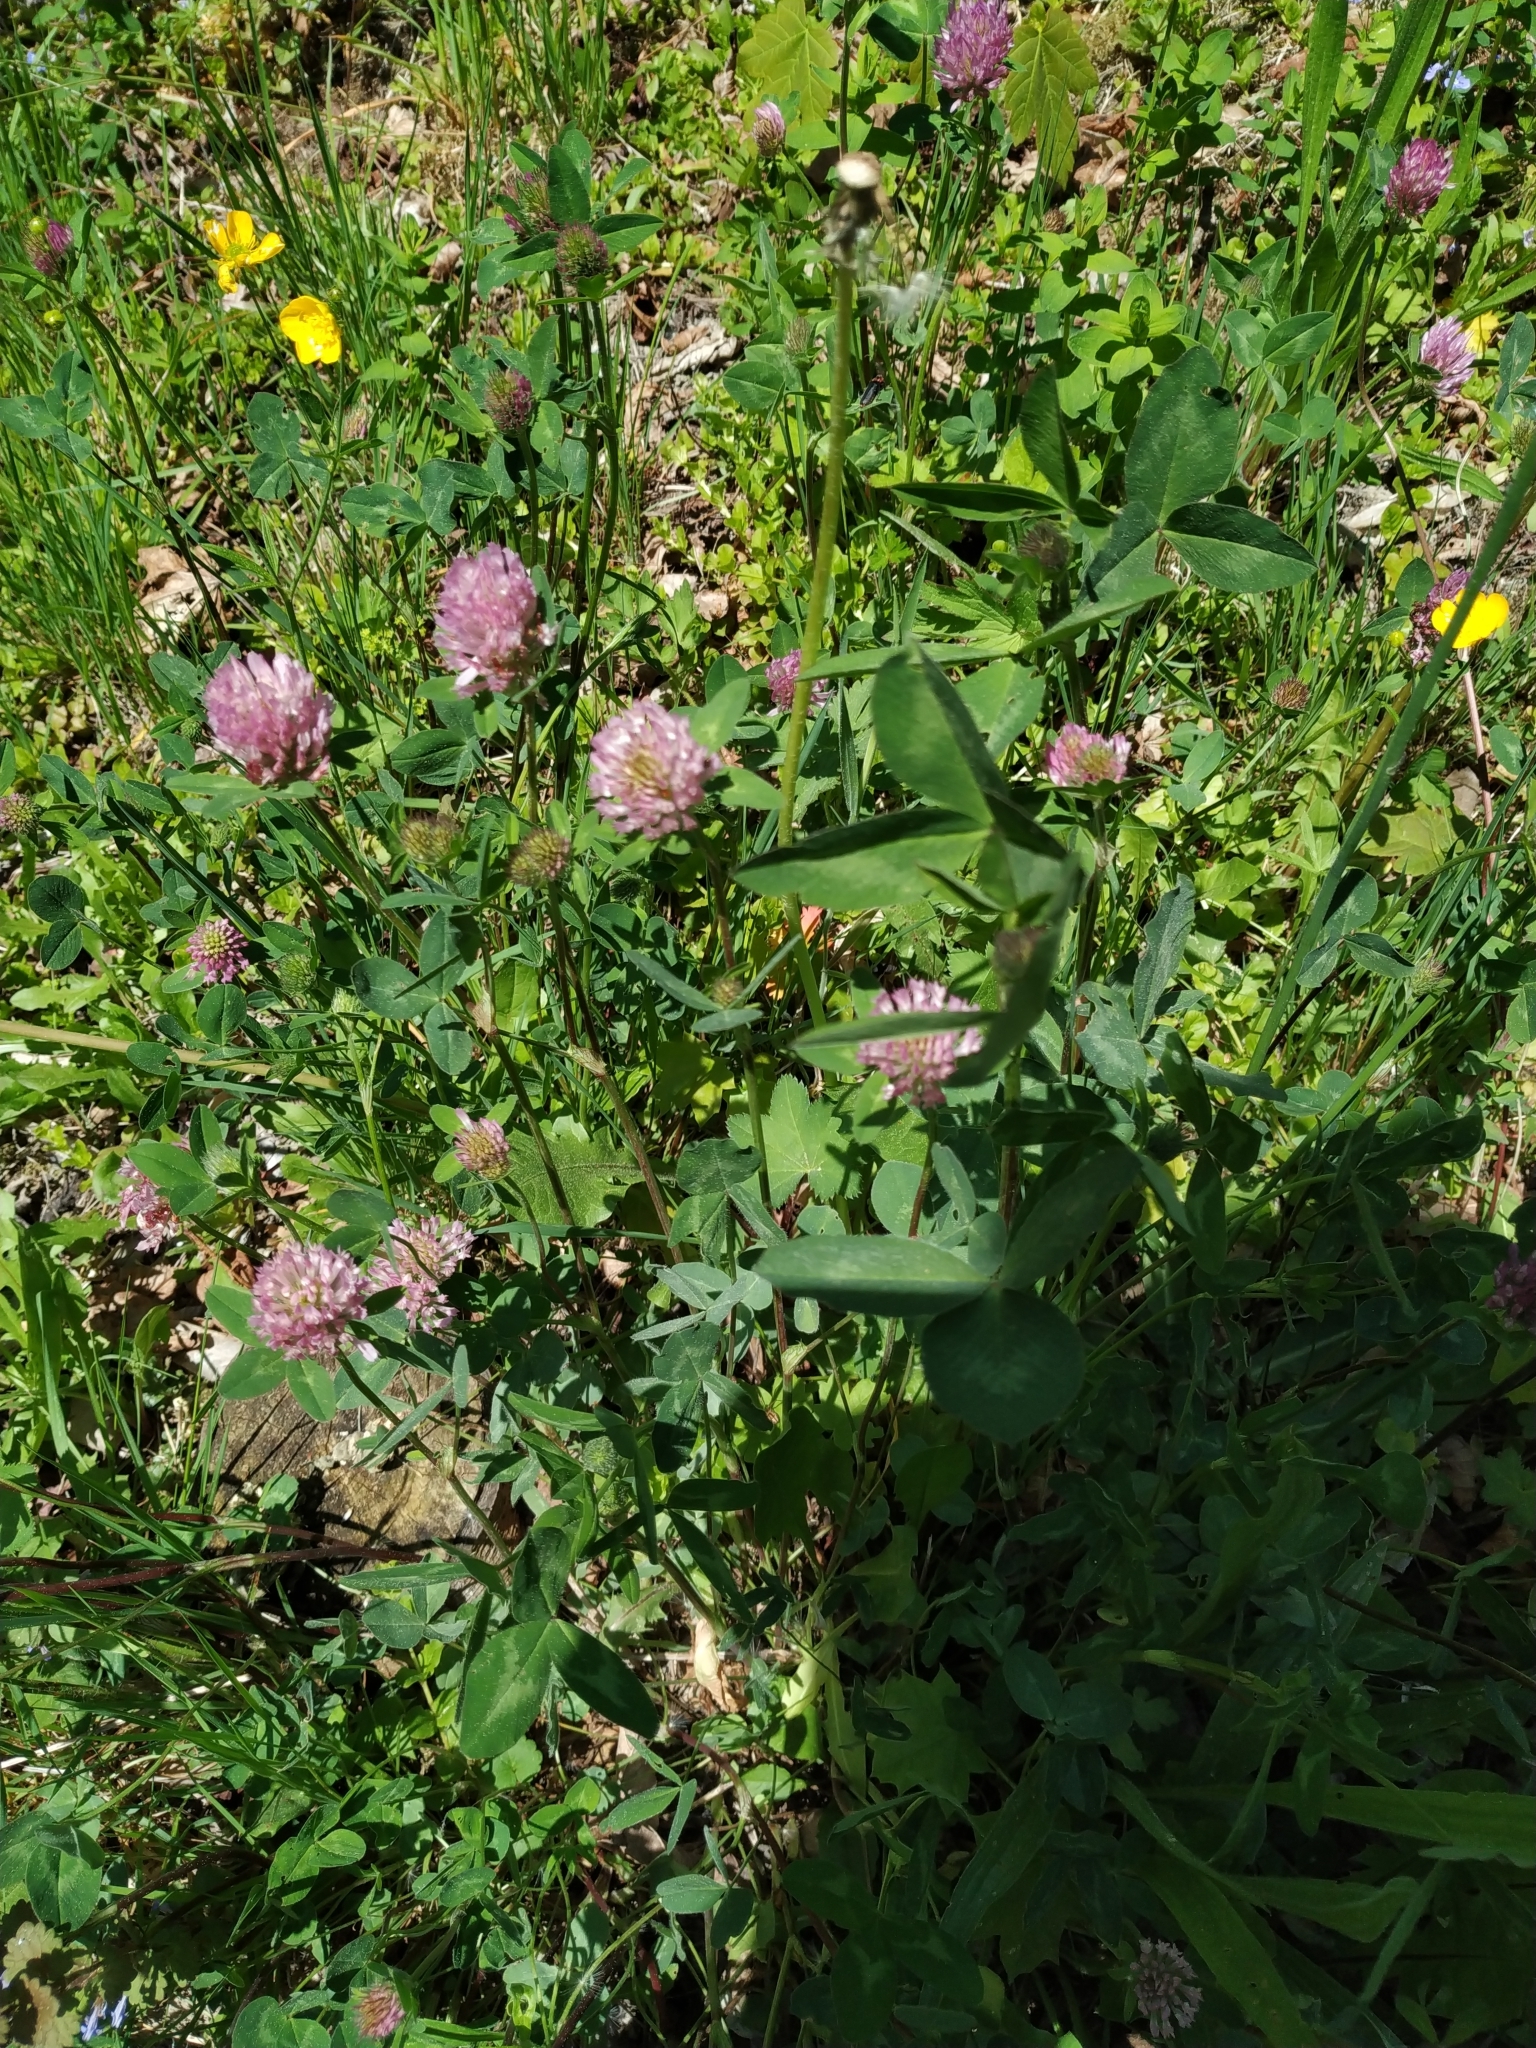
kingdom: Plantae
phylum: Tracheophyta
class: Magnoliopsida
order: Fabales
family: Fabaceae
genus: Trifolium
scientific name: Trifolium pratense
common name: Red clover
